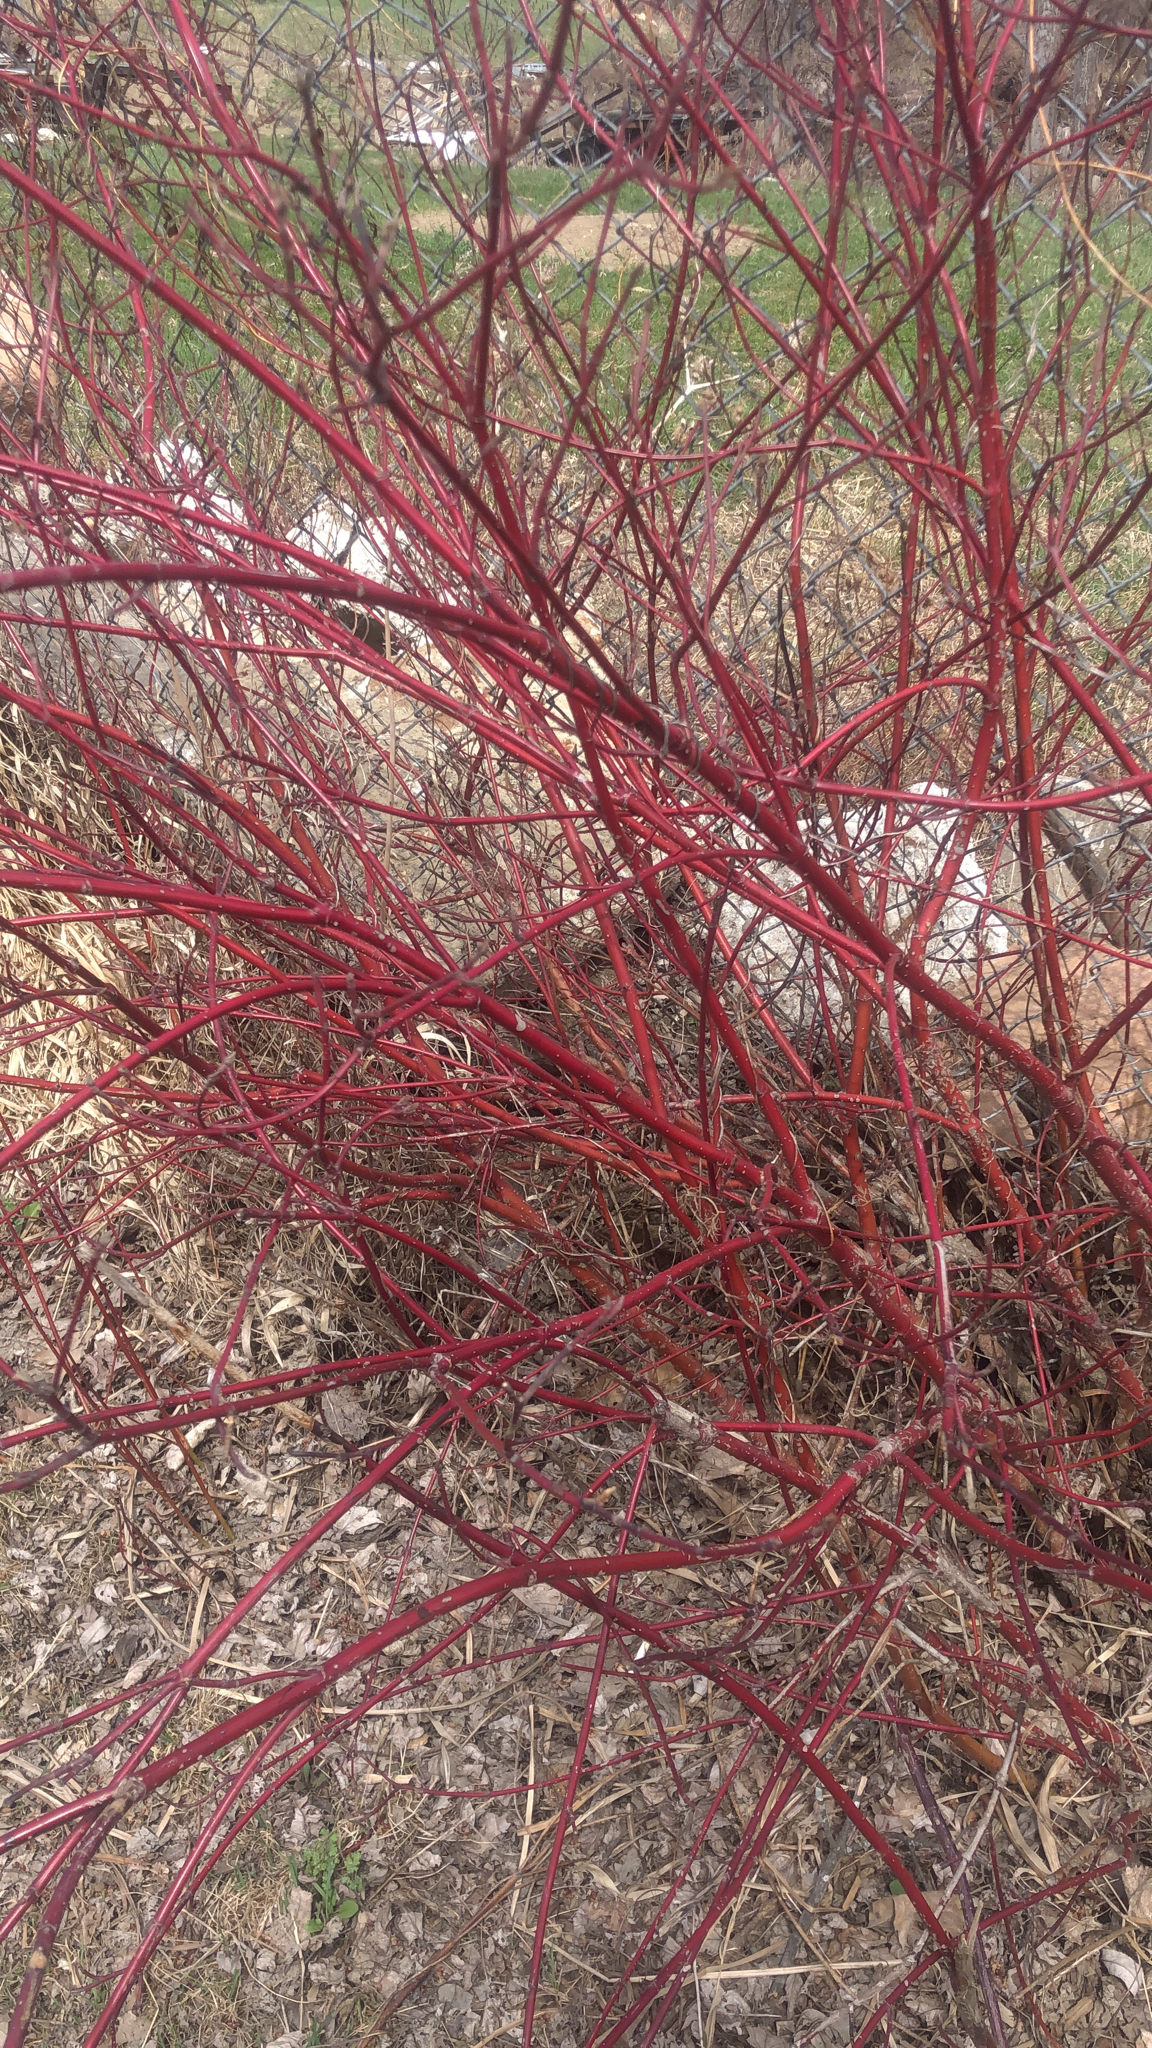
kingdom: Plantae
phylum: Tracheophyta
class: Magnoliopsida
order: Cornales
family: Cornaceae
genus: Cornus
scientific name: Cornus sericea
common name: Red-osier dogwood
